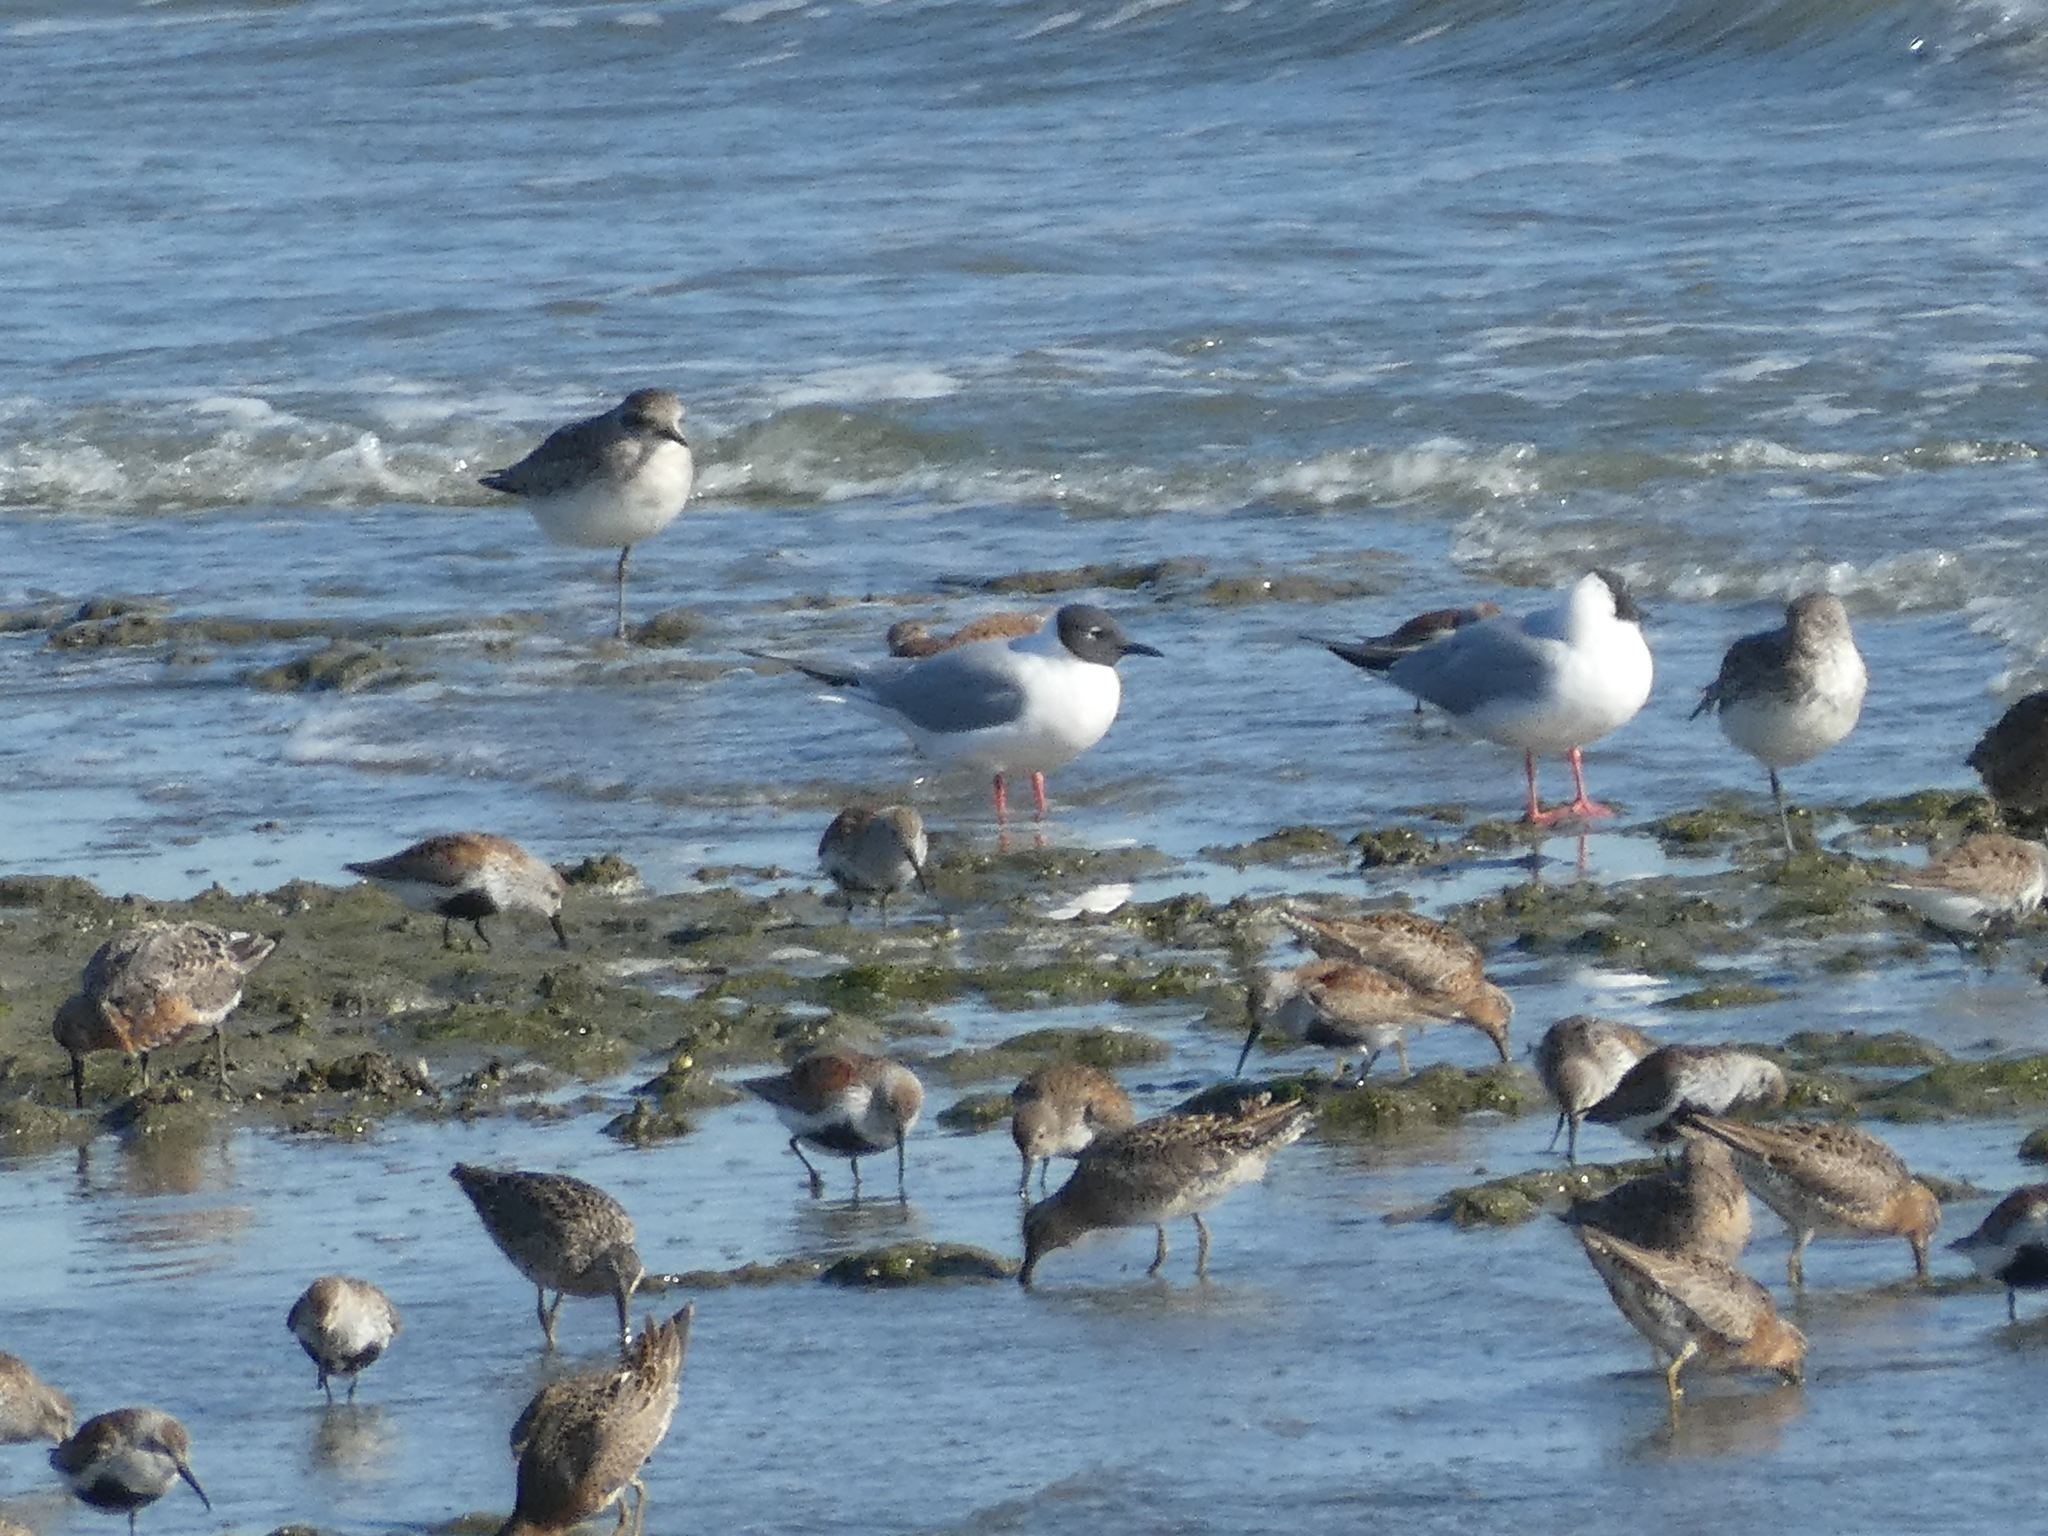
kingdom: Animalia
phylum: Chordata
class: Aves
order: Charadriiformes
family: Laridae
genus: Chroicocephalus
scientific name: Chroicocephalus philadelphia
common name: Bonaparte's gull
